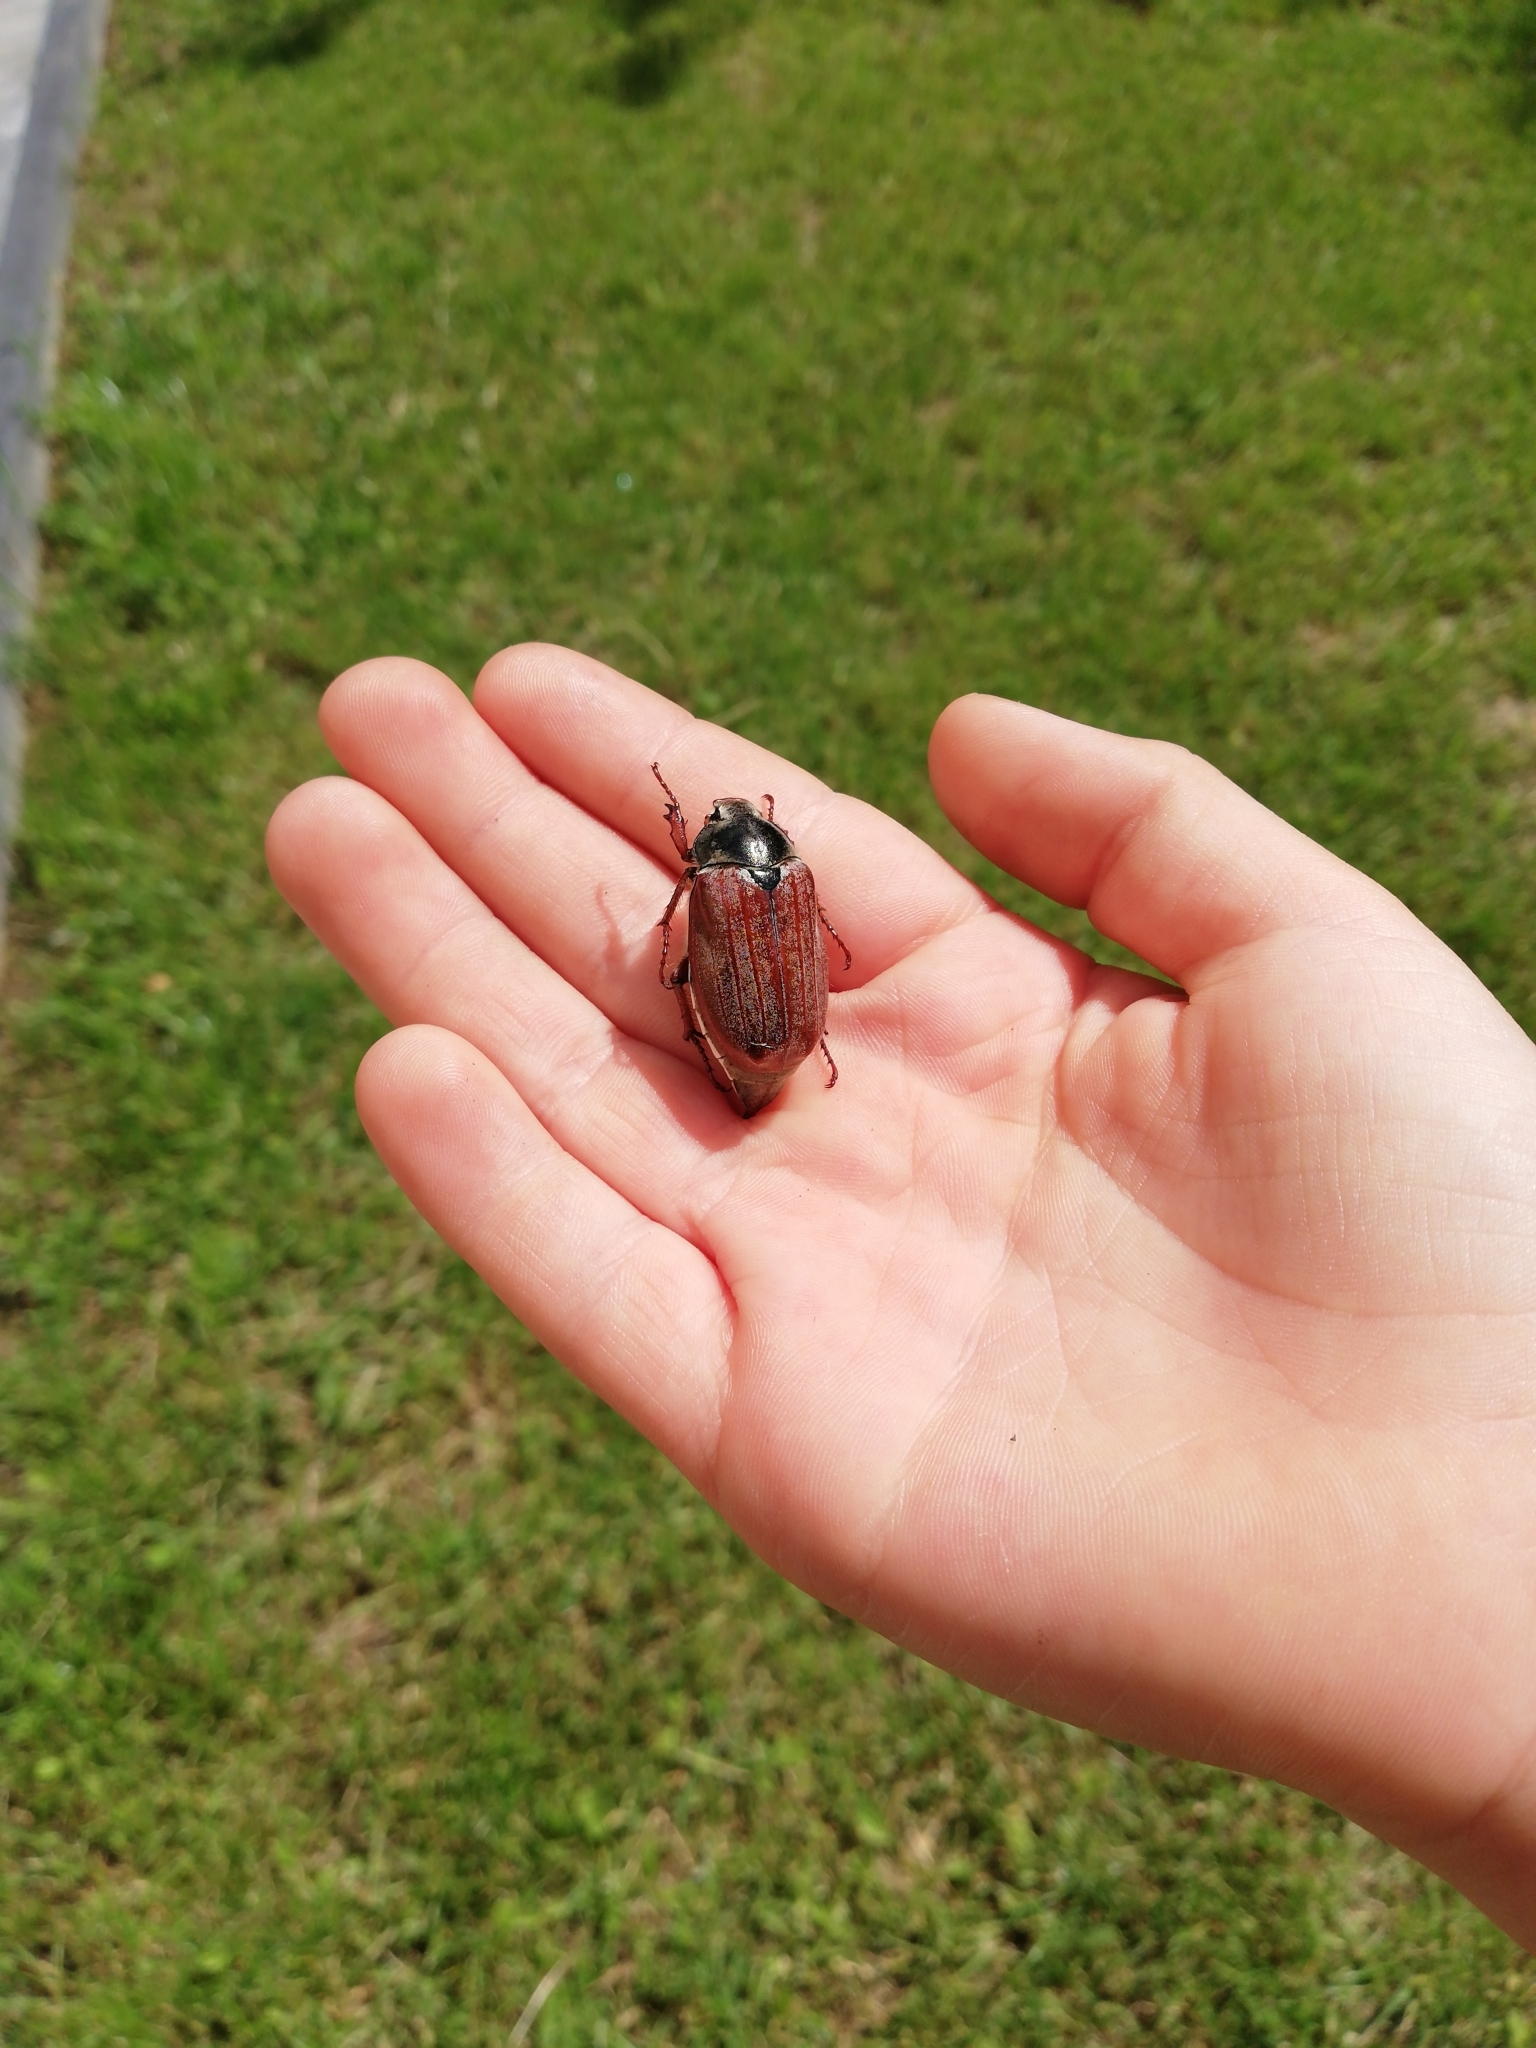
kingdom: Animalia
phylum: Arthropoda
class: Insecta
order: Coleoptera
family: Scarabaeidae
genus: Melolontha
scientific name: Melolontha melolontha
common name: Cockchafer maybeetle
